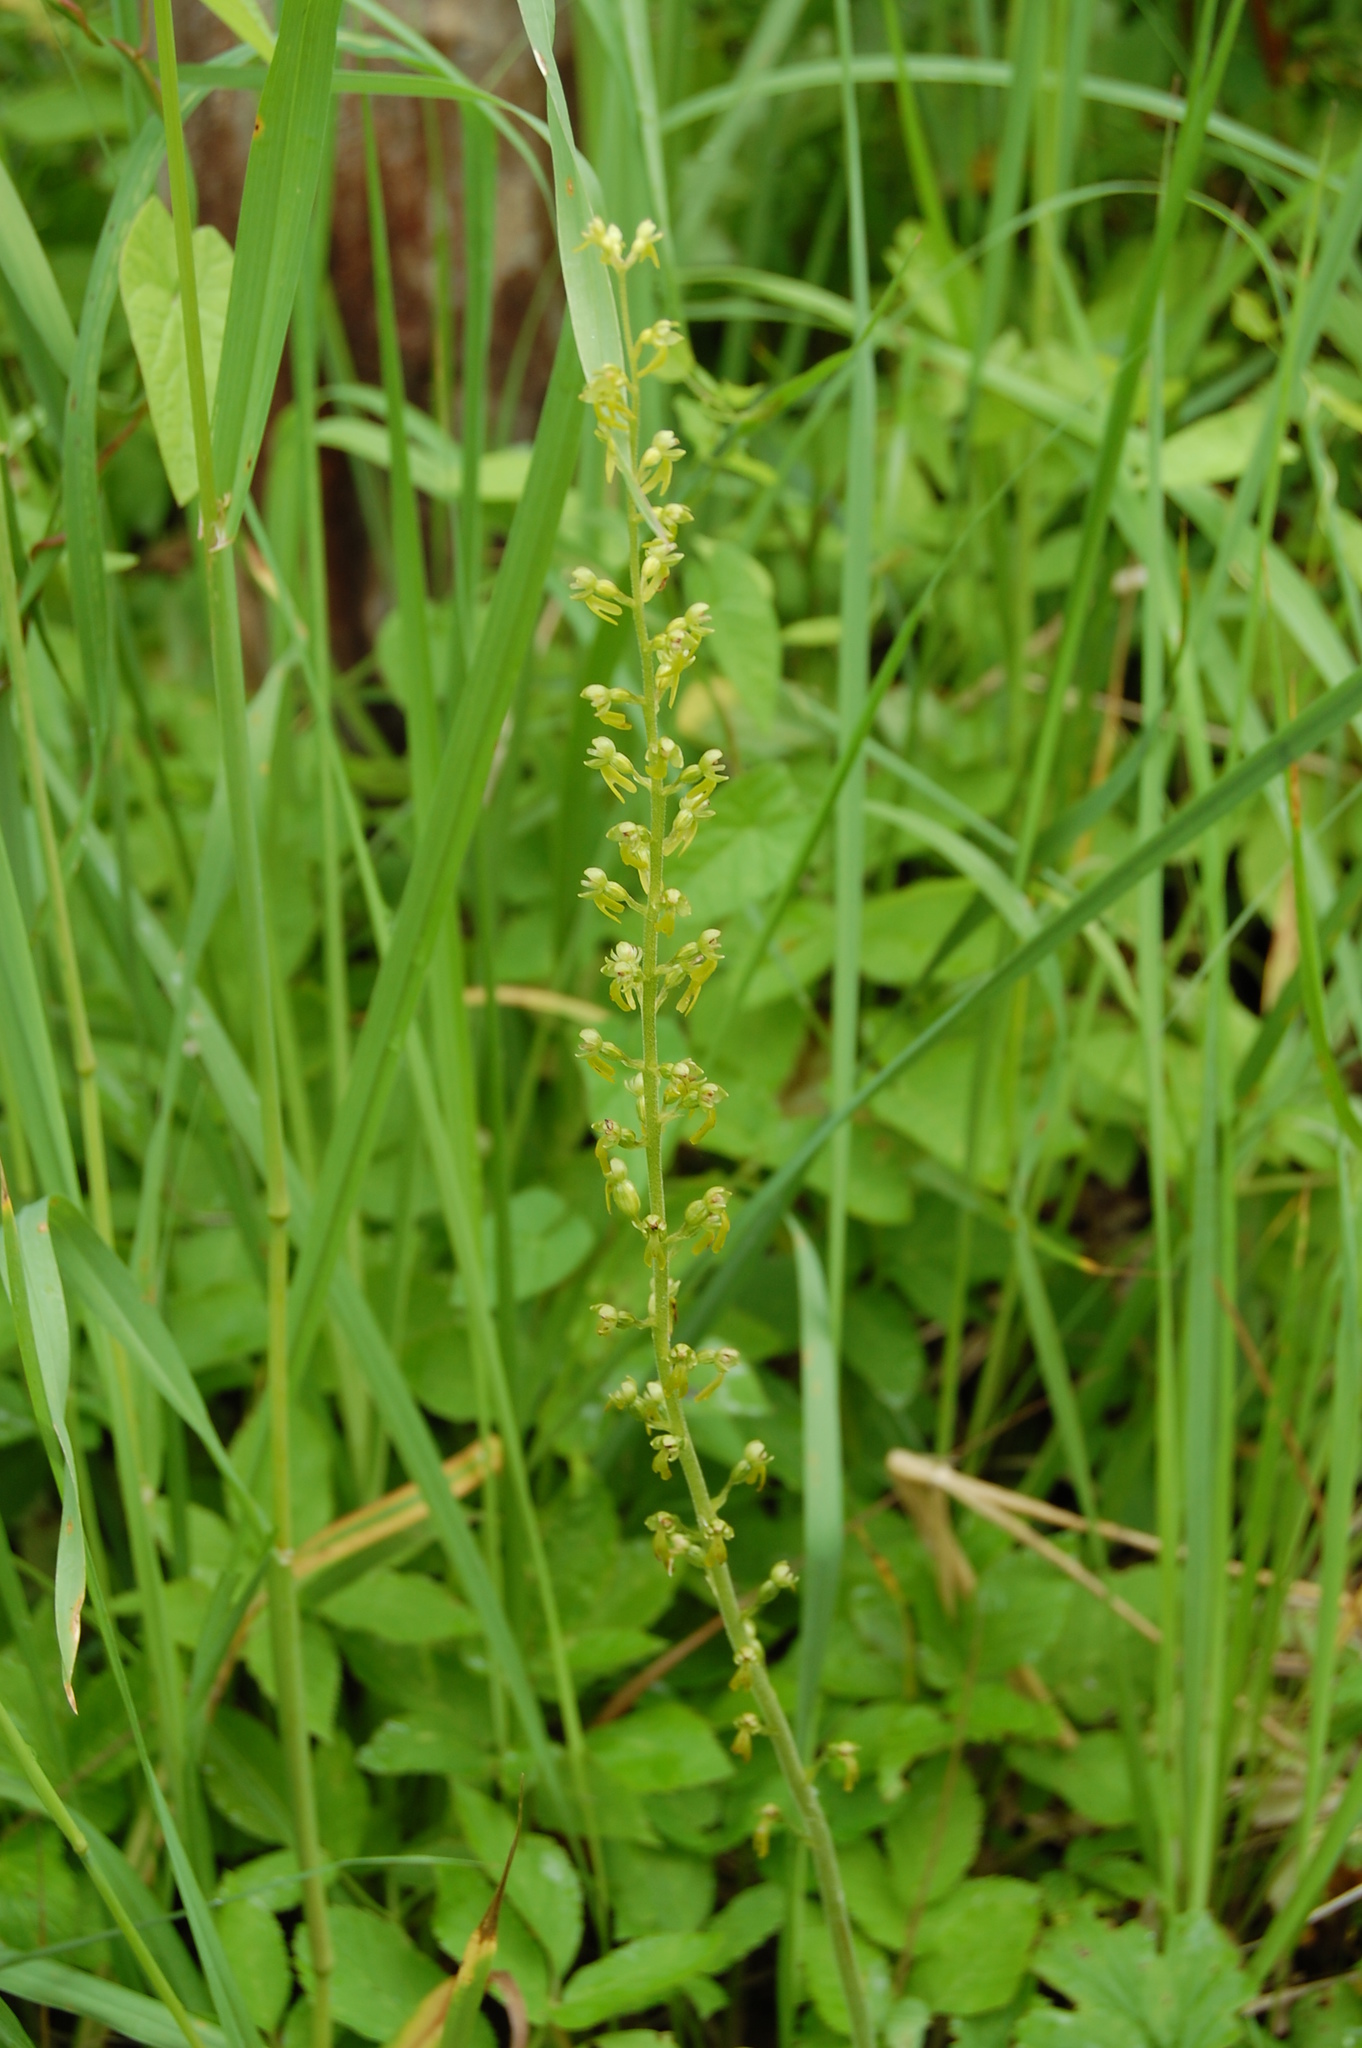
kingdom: Plantae
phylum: Tracheophyta
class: Liliopsida
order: Asparagales
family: Orchidaceae
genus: Neottia
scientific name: Neottia ovata
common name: Common twayblade
